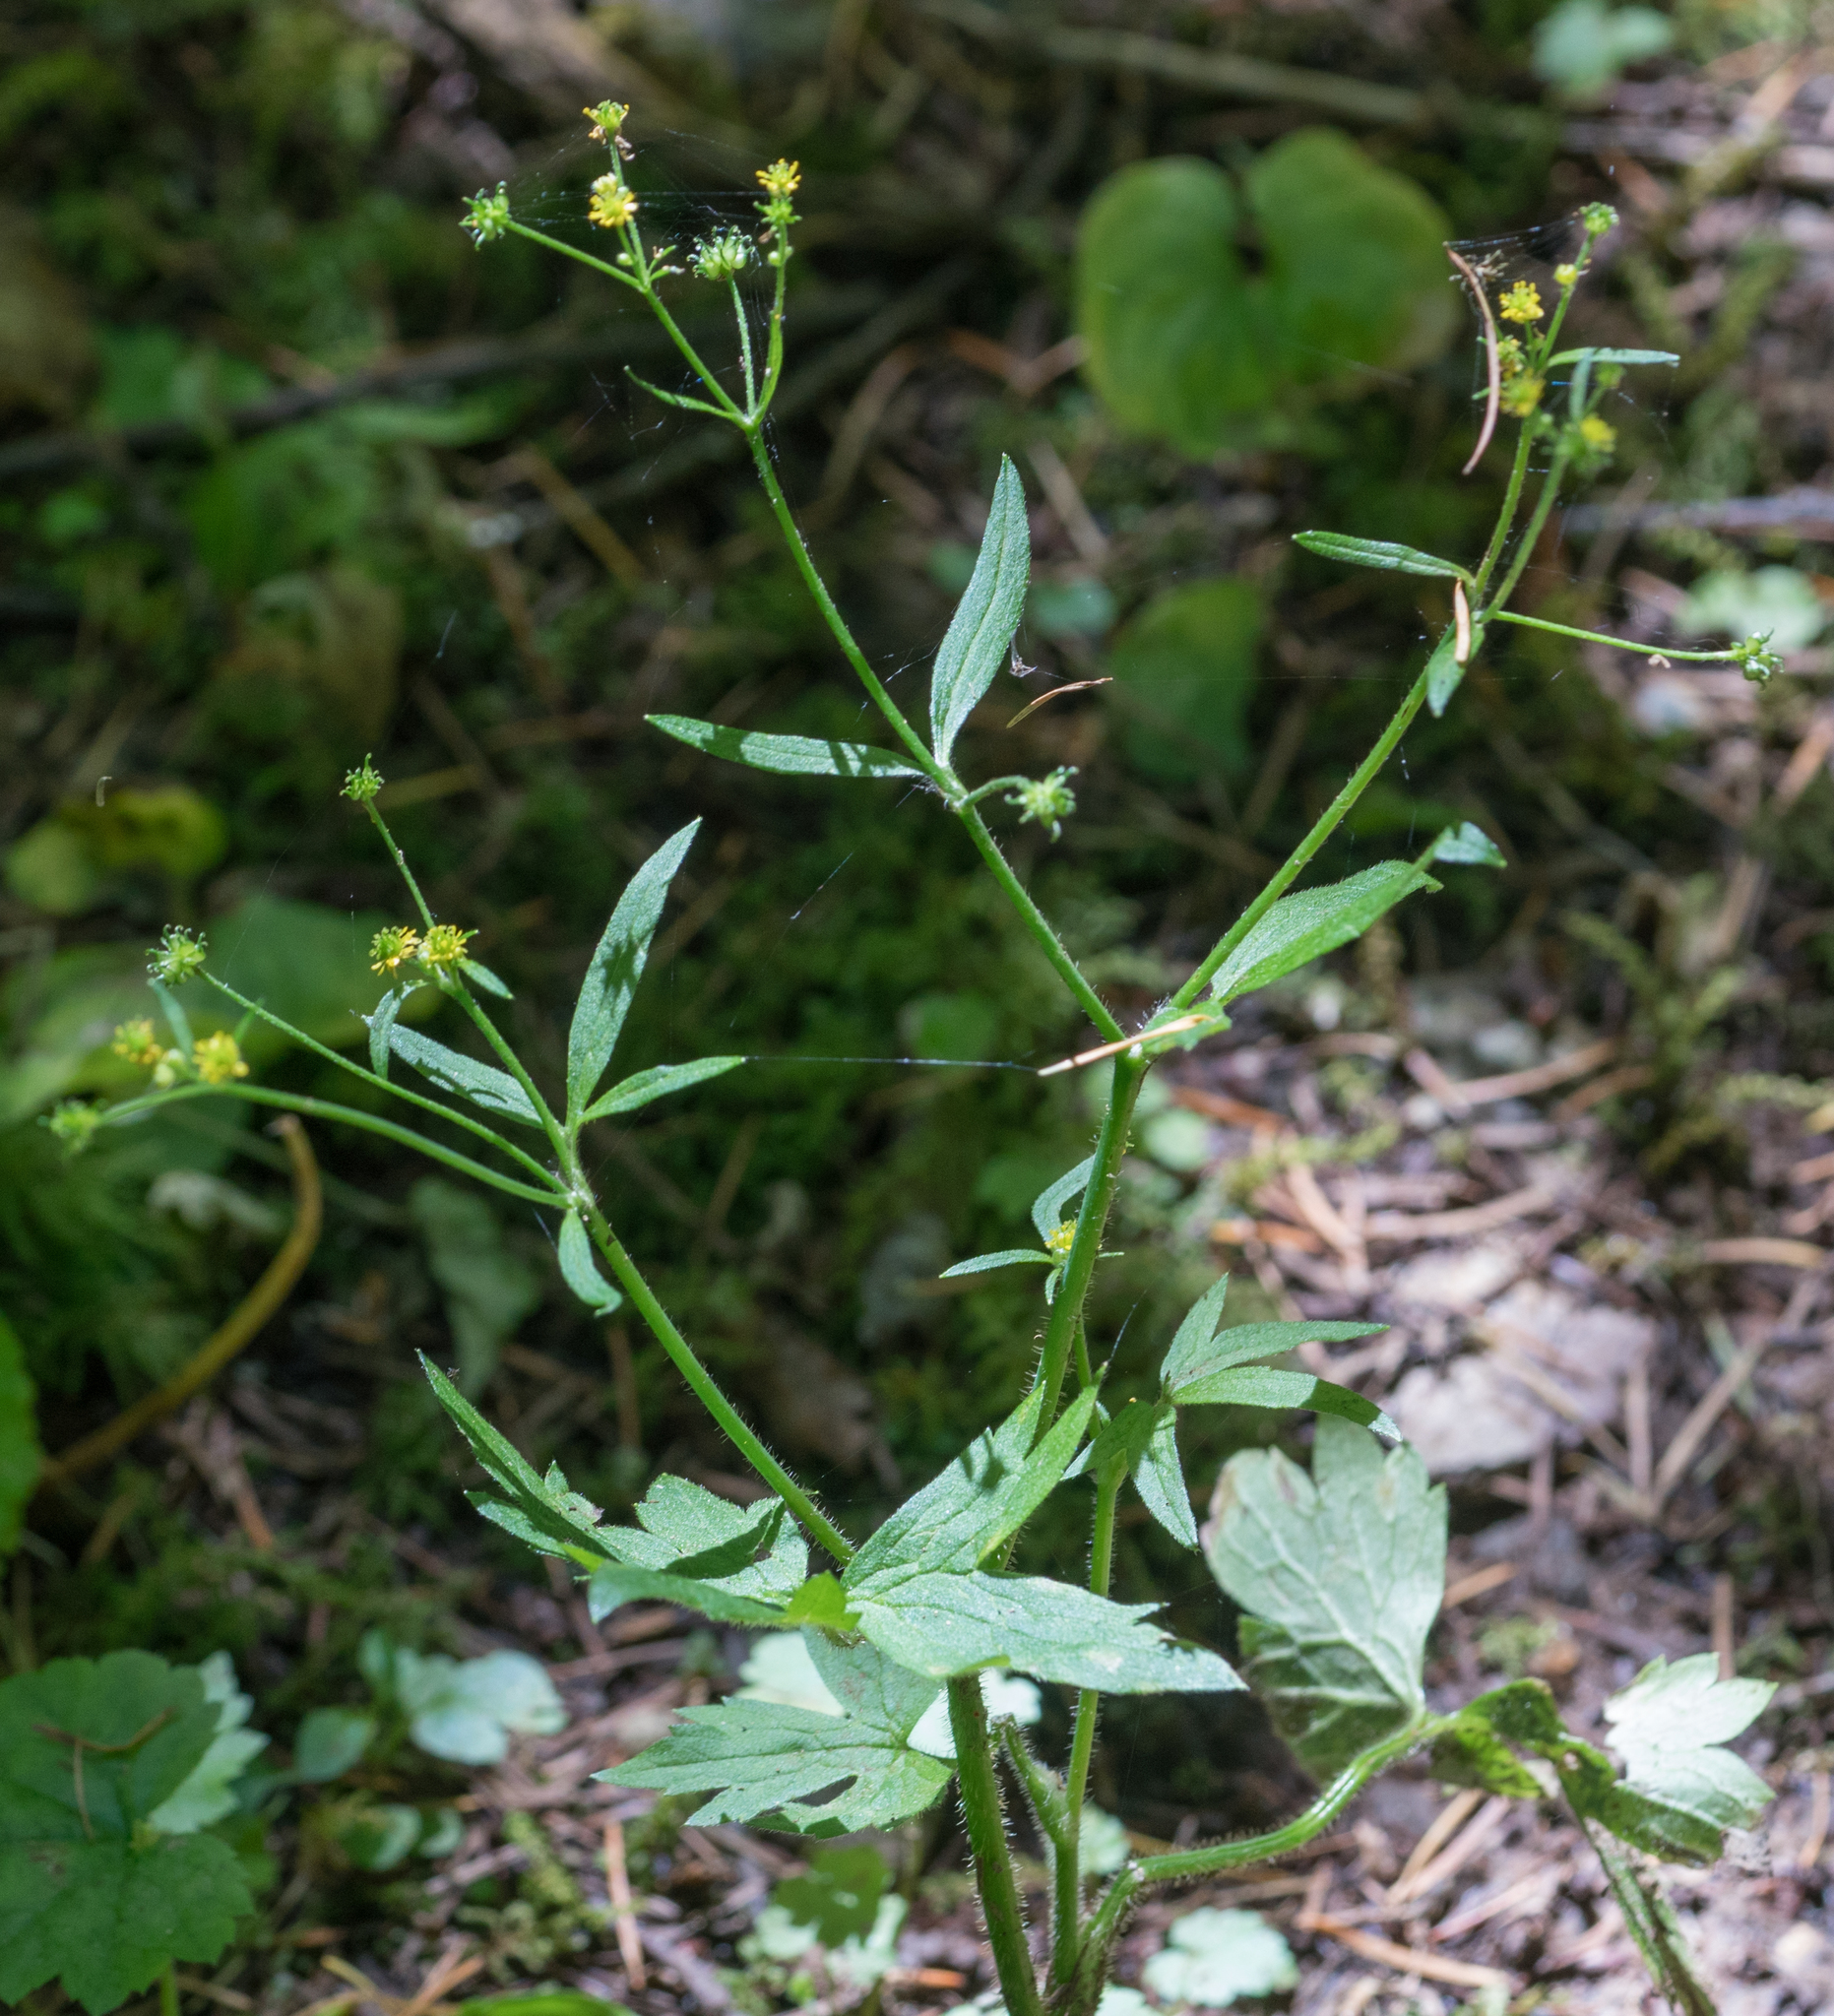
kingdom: Plantae
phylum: Tracheophyta
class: Magnoliopsida
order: Ranunculales
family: Ranunculaceae
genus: Ranunculus
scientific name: Ranunculus uncinatus
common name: Little buttercup
